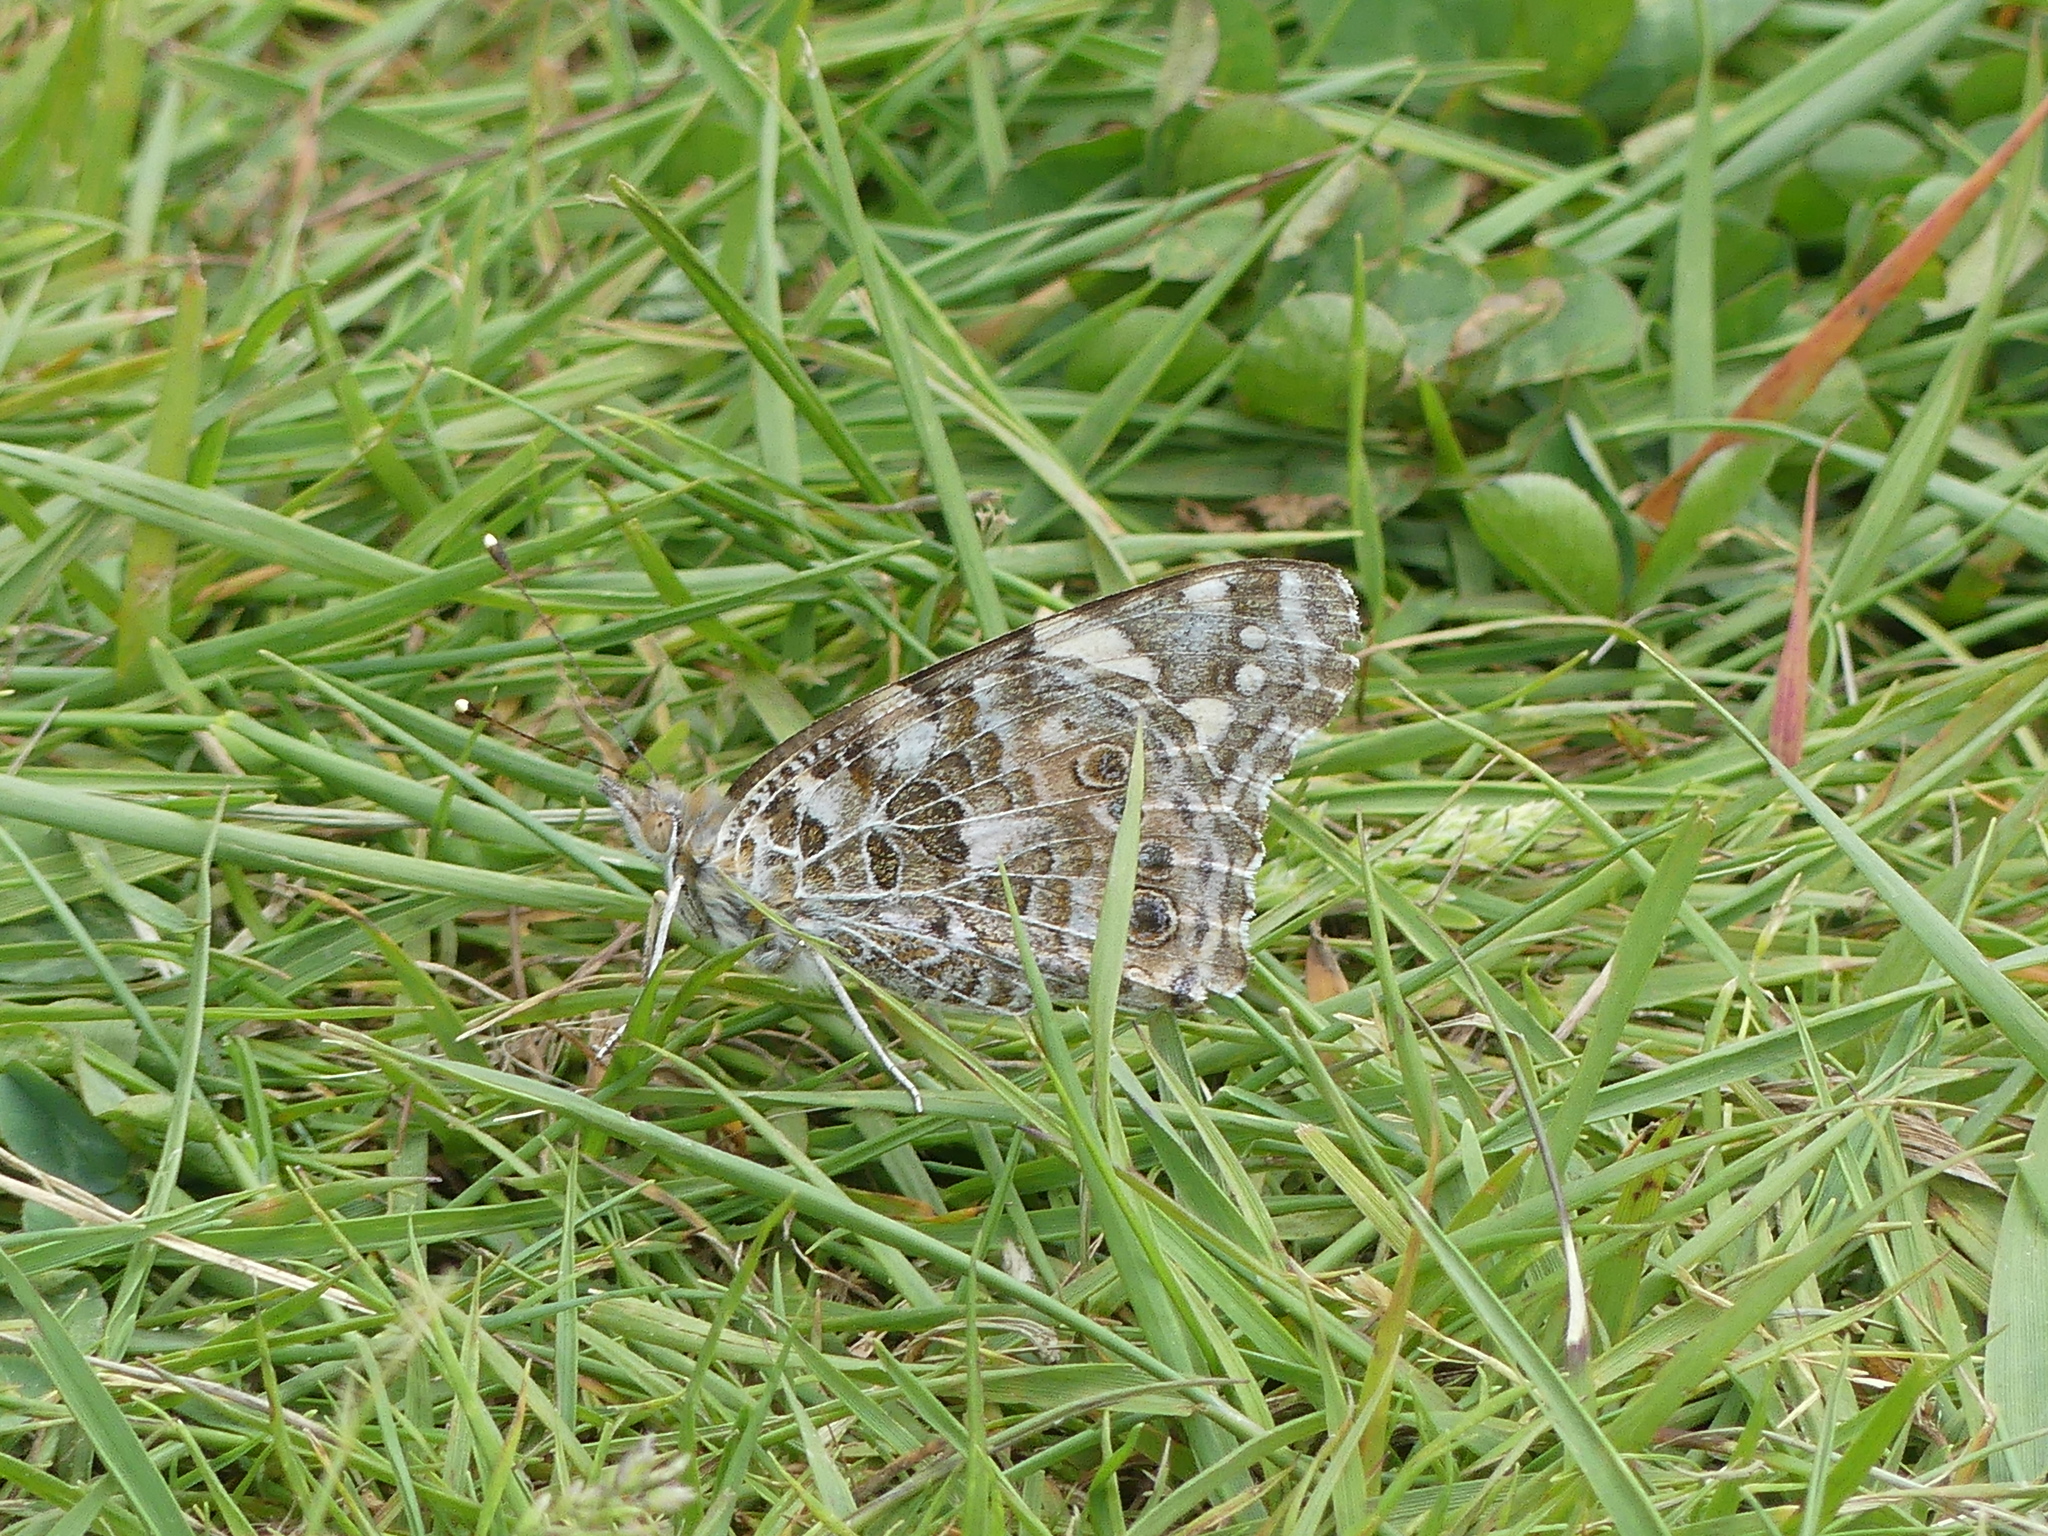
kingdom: Animalia
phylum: Arthropoda
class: Insecta
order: Lepidoptera
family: Nymphalidae
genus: Vanessa
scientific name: Vanessa cardui
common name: Painted lady
